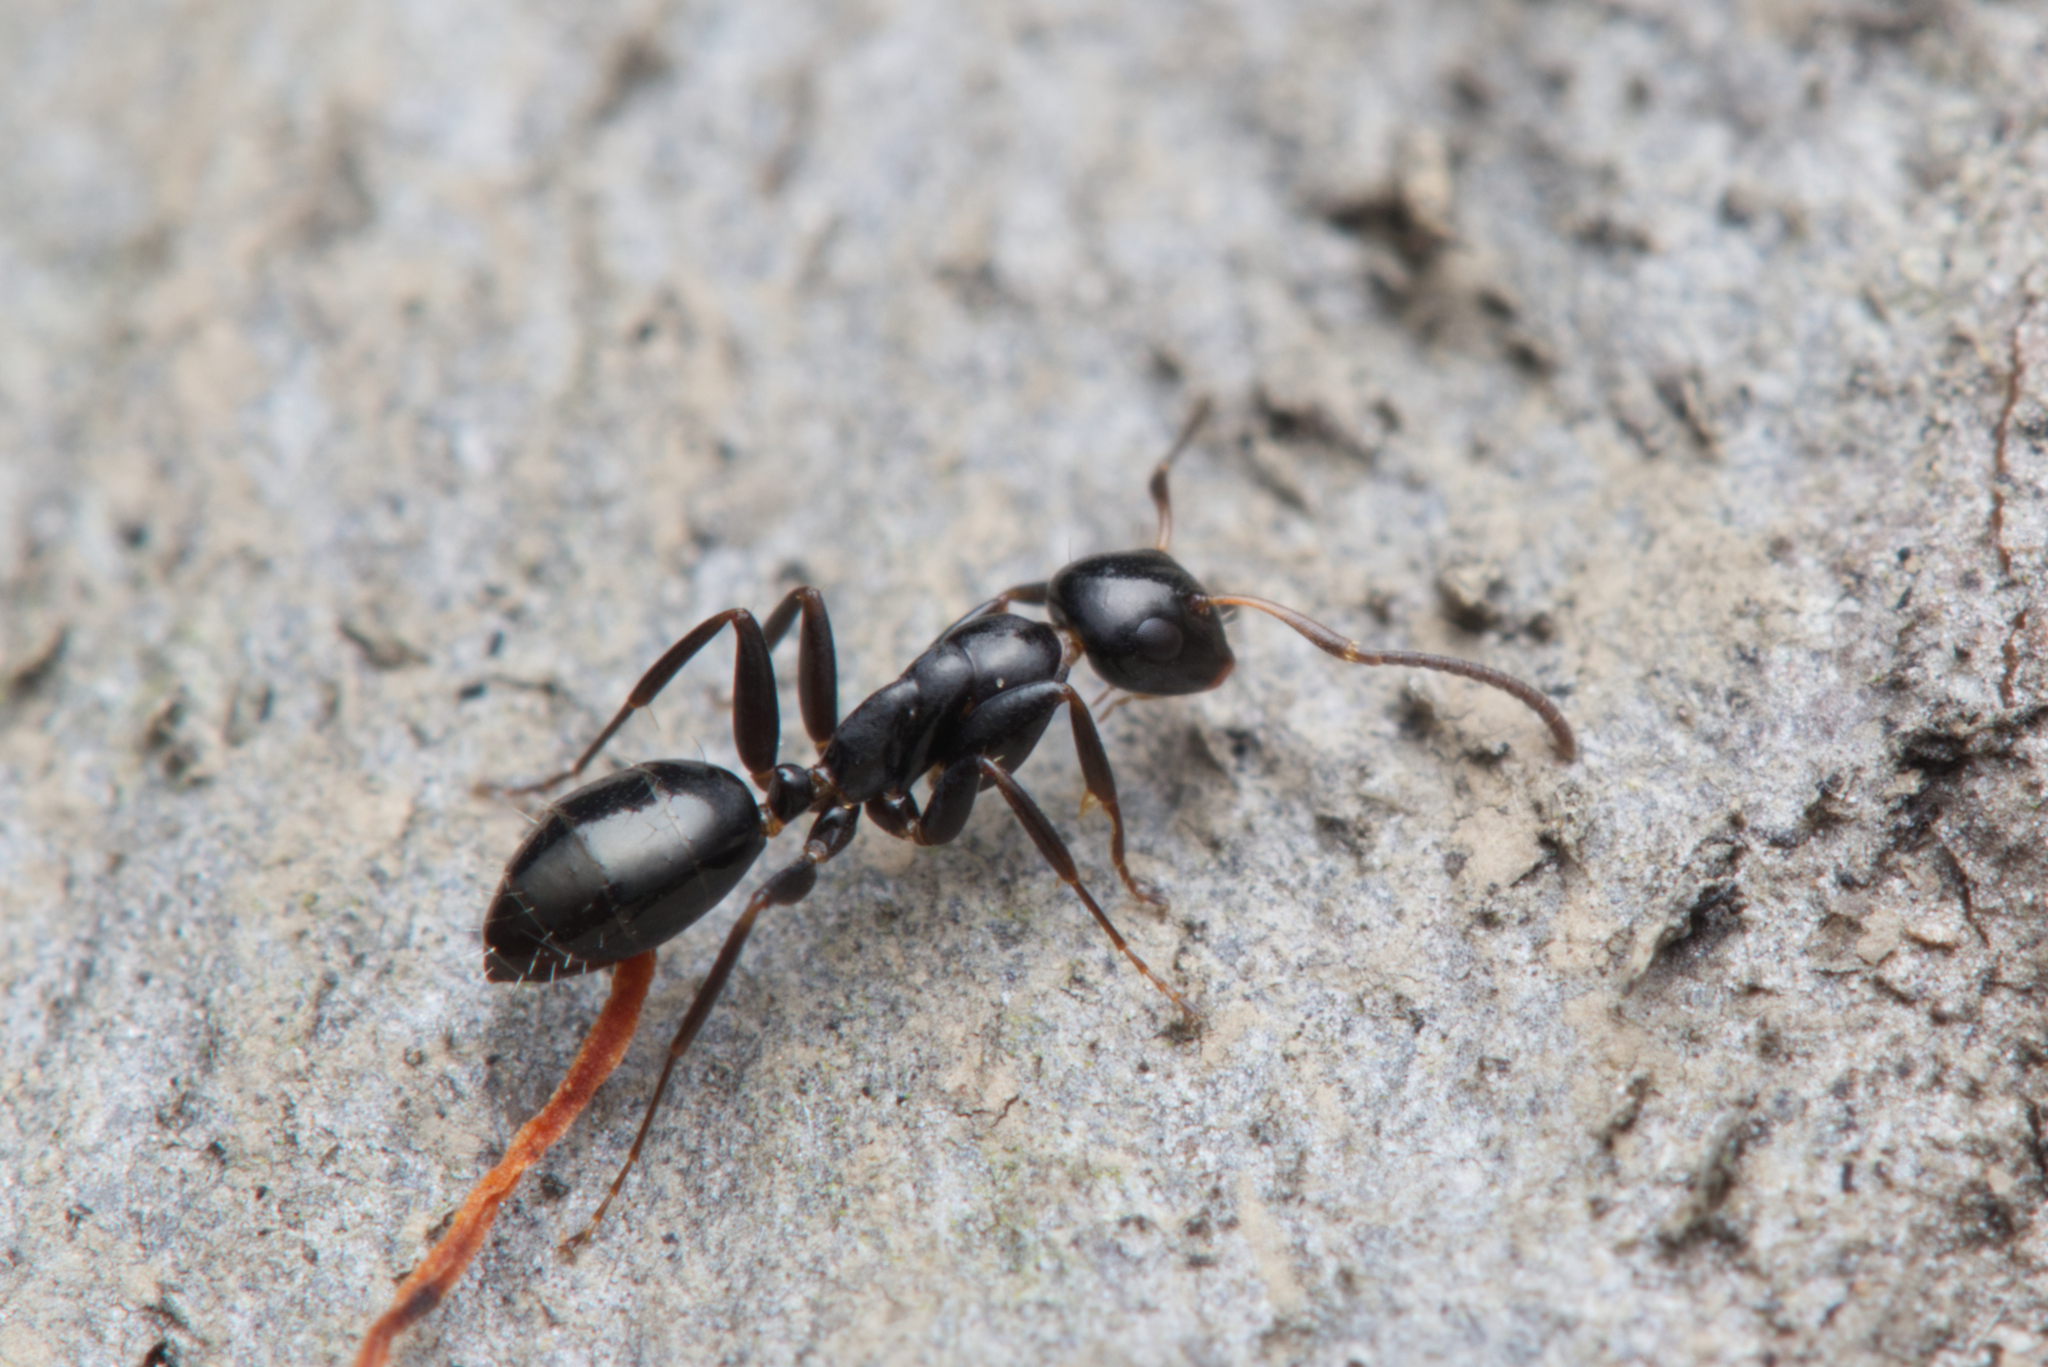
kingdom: Animalia
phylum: Arthropoda
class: Insecta
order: Hymenoptera
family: Formicidae
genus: Colobopsis
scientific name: Colobopsis
